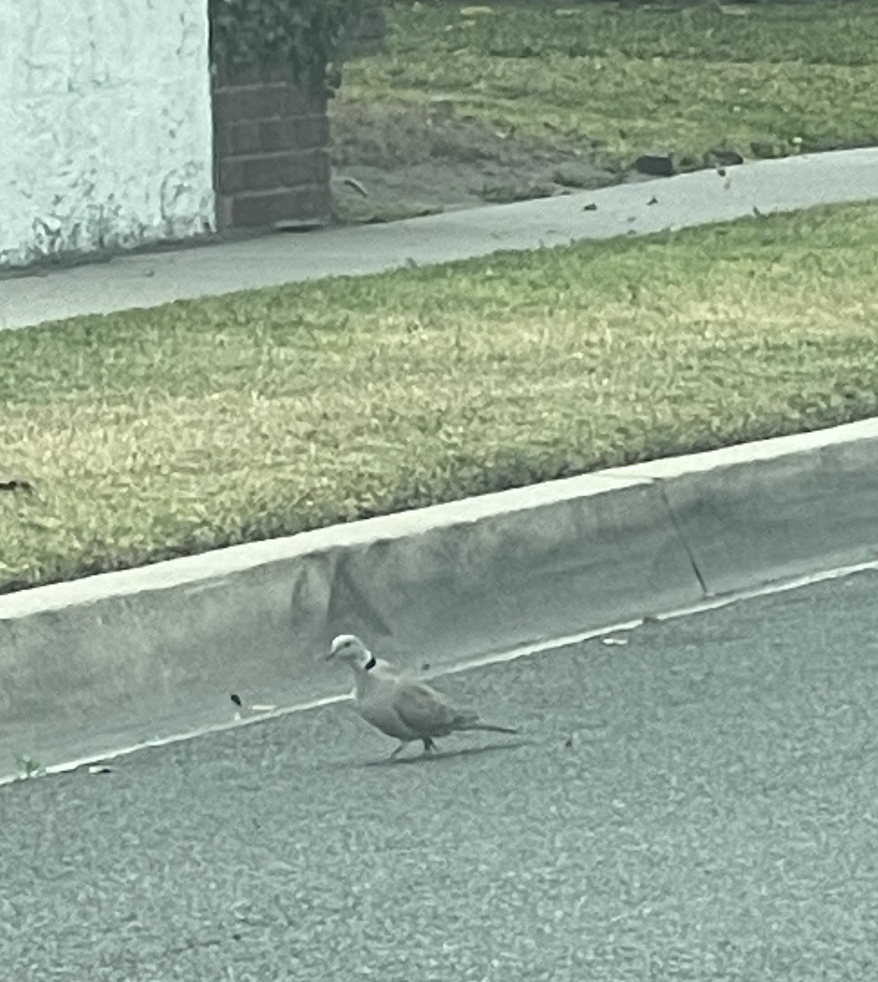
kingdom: Animalia
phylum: Chordata
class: Aves
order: Columbiformes
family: Columbidae
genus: Streptopelia
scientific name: Streptopelia decaocto
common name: Eurasian collared dove
